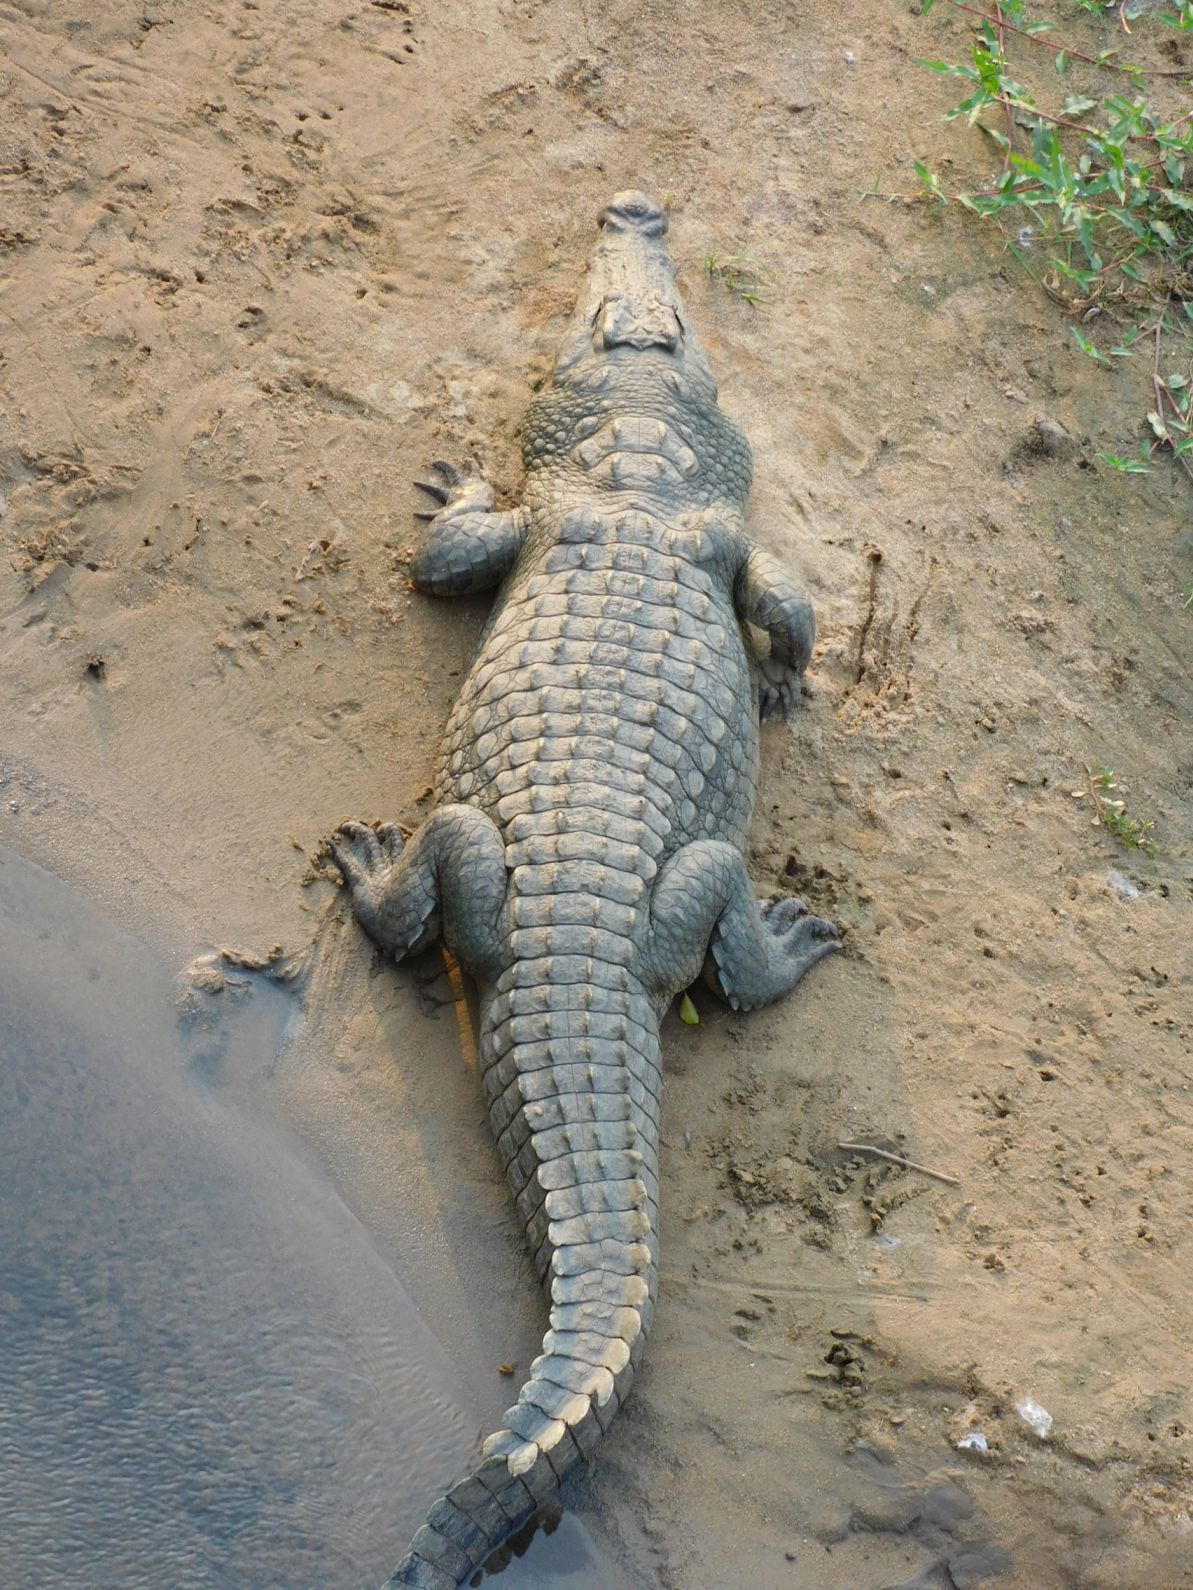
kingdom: Animalia
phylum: Chordata
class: Crocodylia
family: Crocodylidae
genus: Crocodylus
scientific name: Crocodylus niloticus
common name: Nile crocodile
